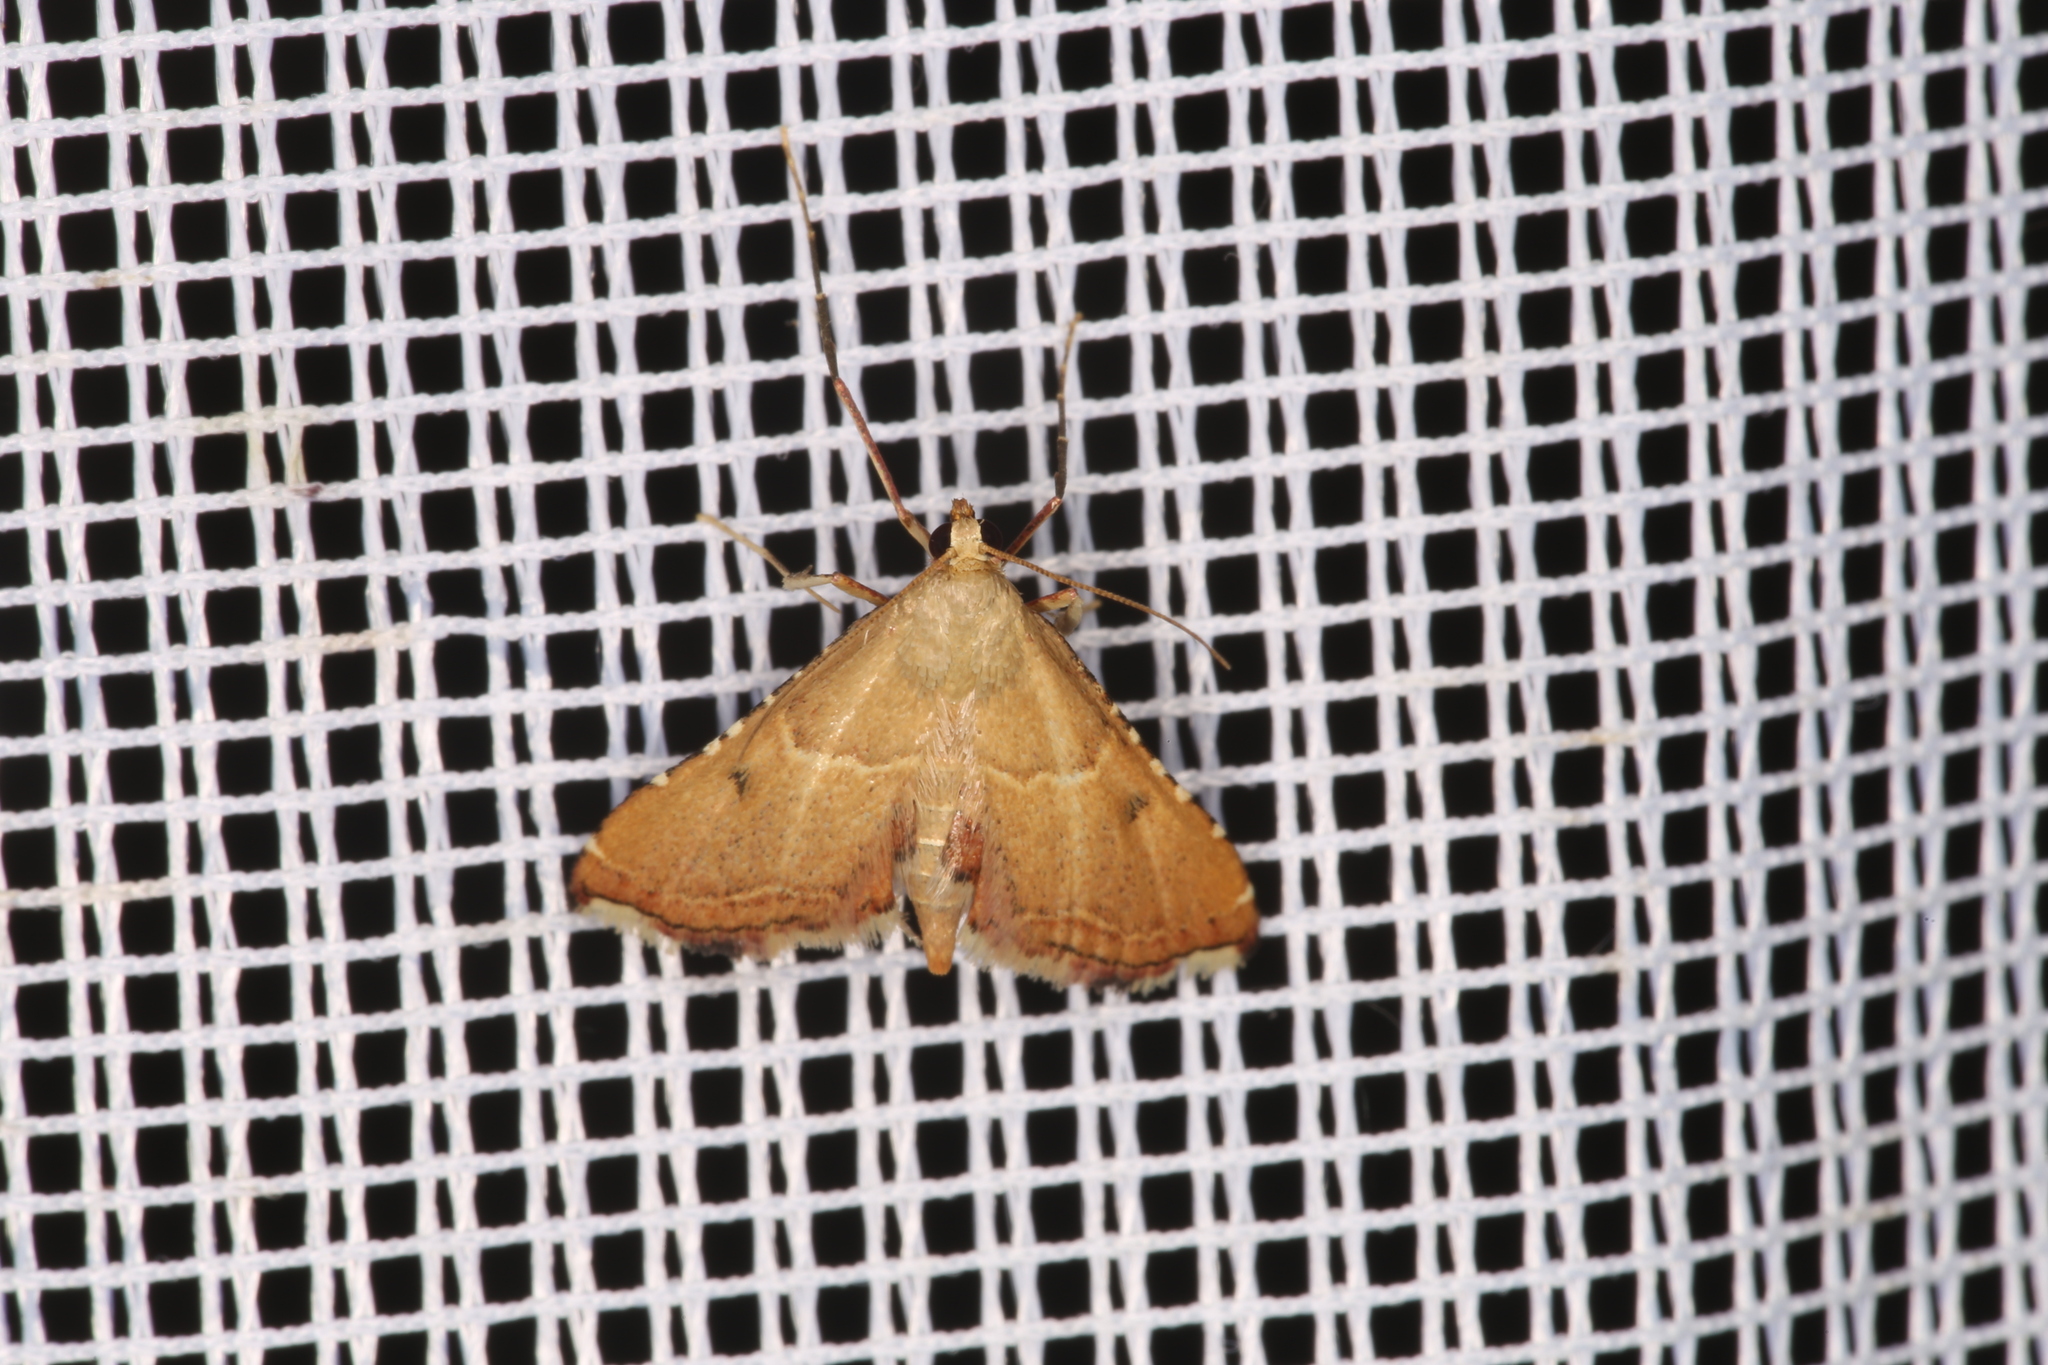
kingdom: Animalia
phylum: Arthropoda
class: Insecta
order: Lepidoptera
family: Pyralidae
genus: Endotricha
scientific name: Endotricha flammealis
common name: Rosy tabby
